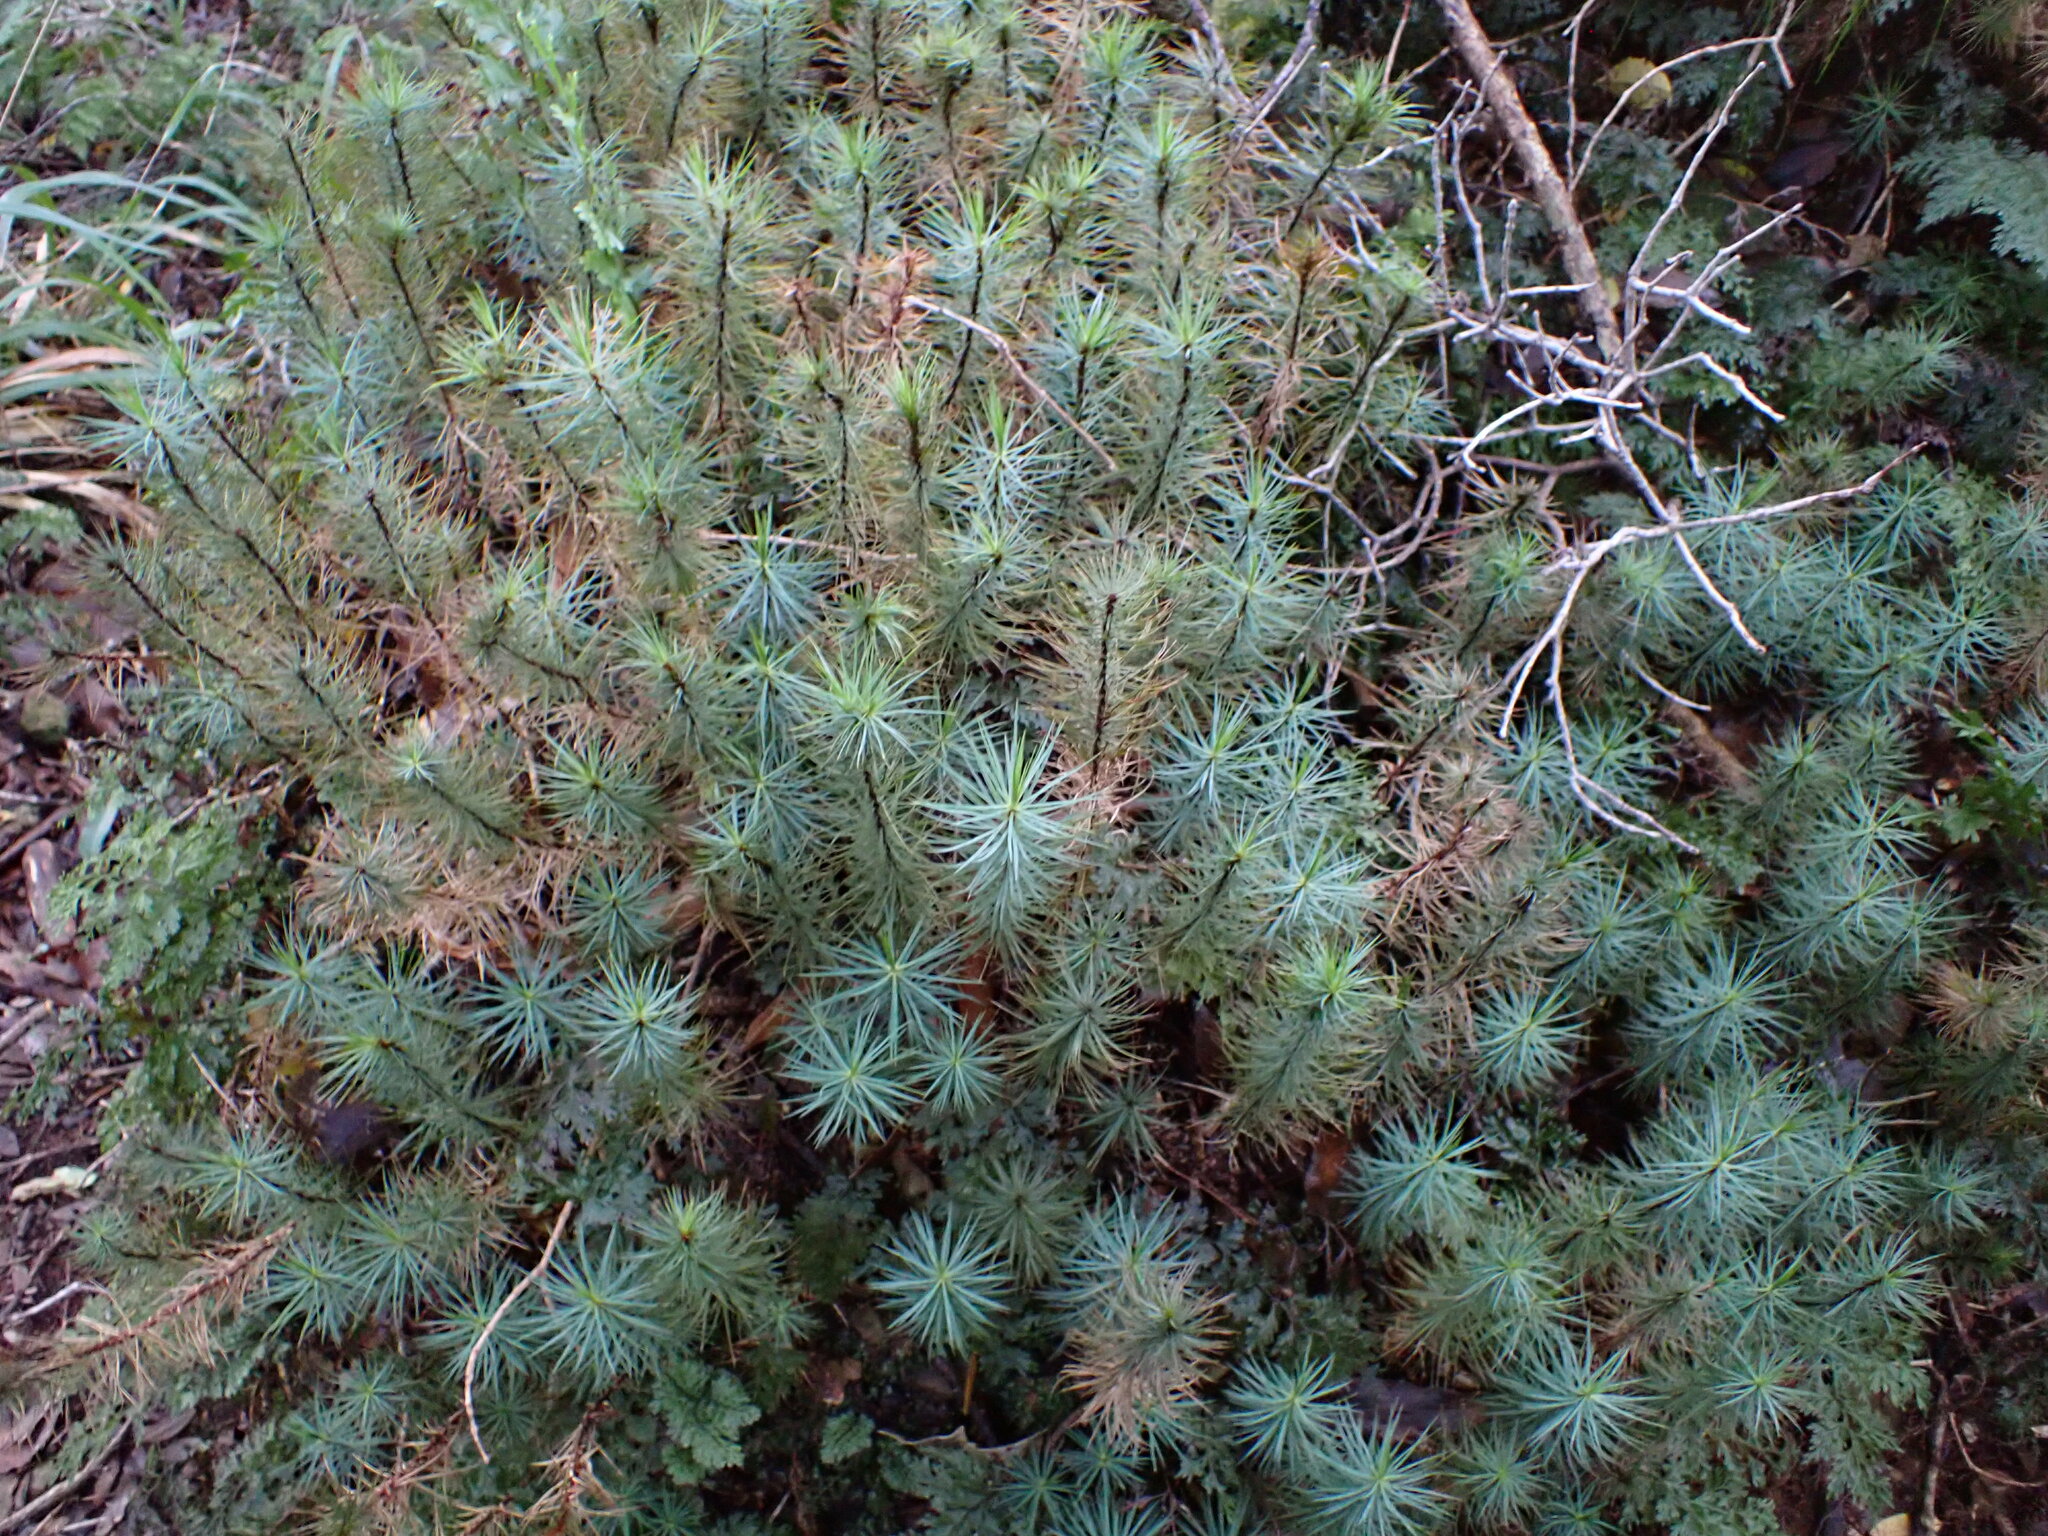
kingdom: Plantae
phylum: Bryophyta
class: Polytrichopsida
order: Polytrichales
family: Polytrichaceae
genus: Dawsonia
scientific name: Dawsonia superba
